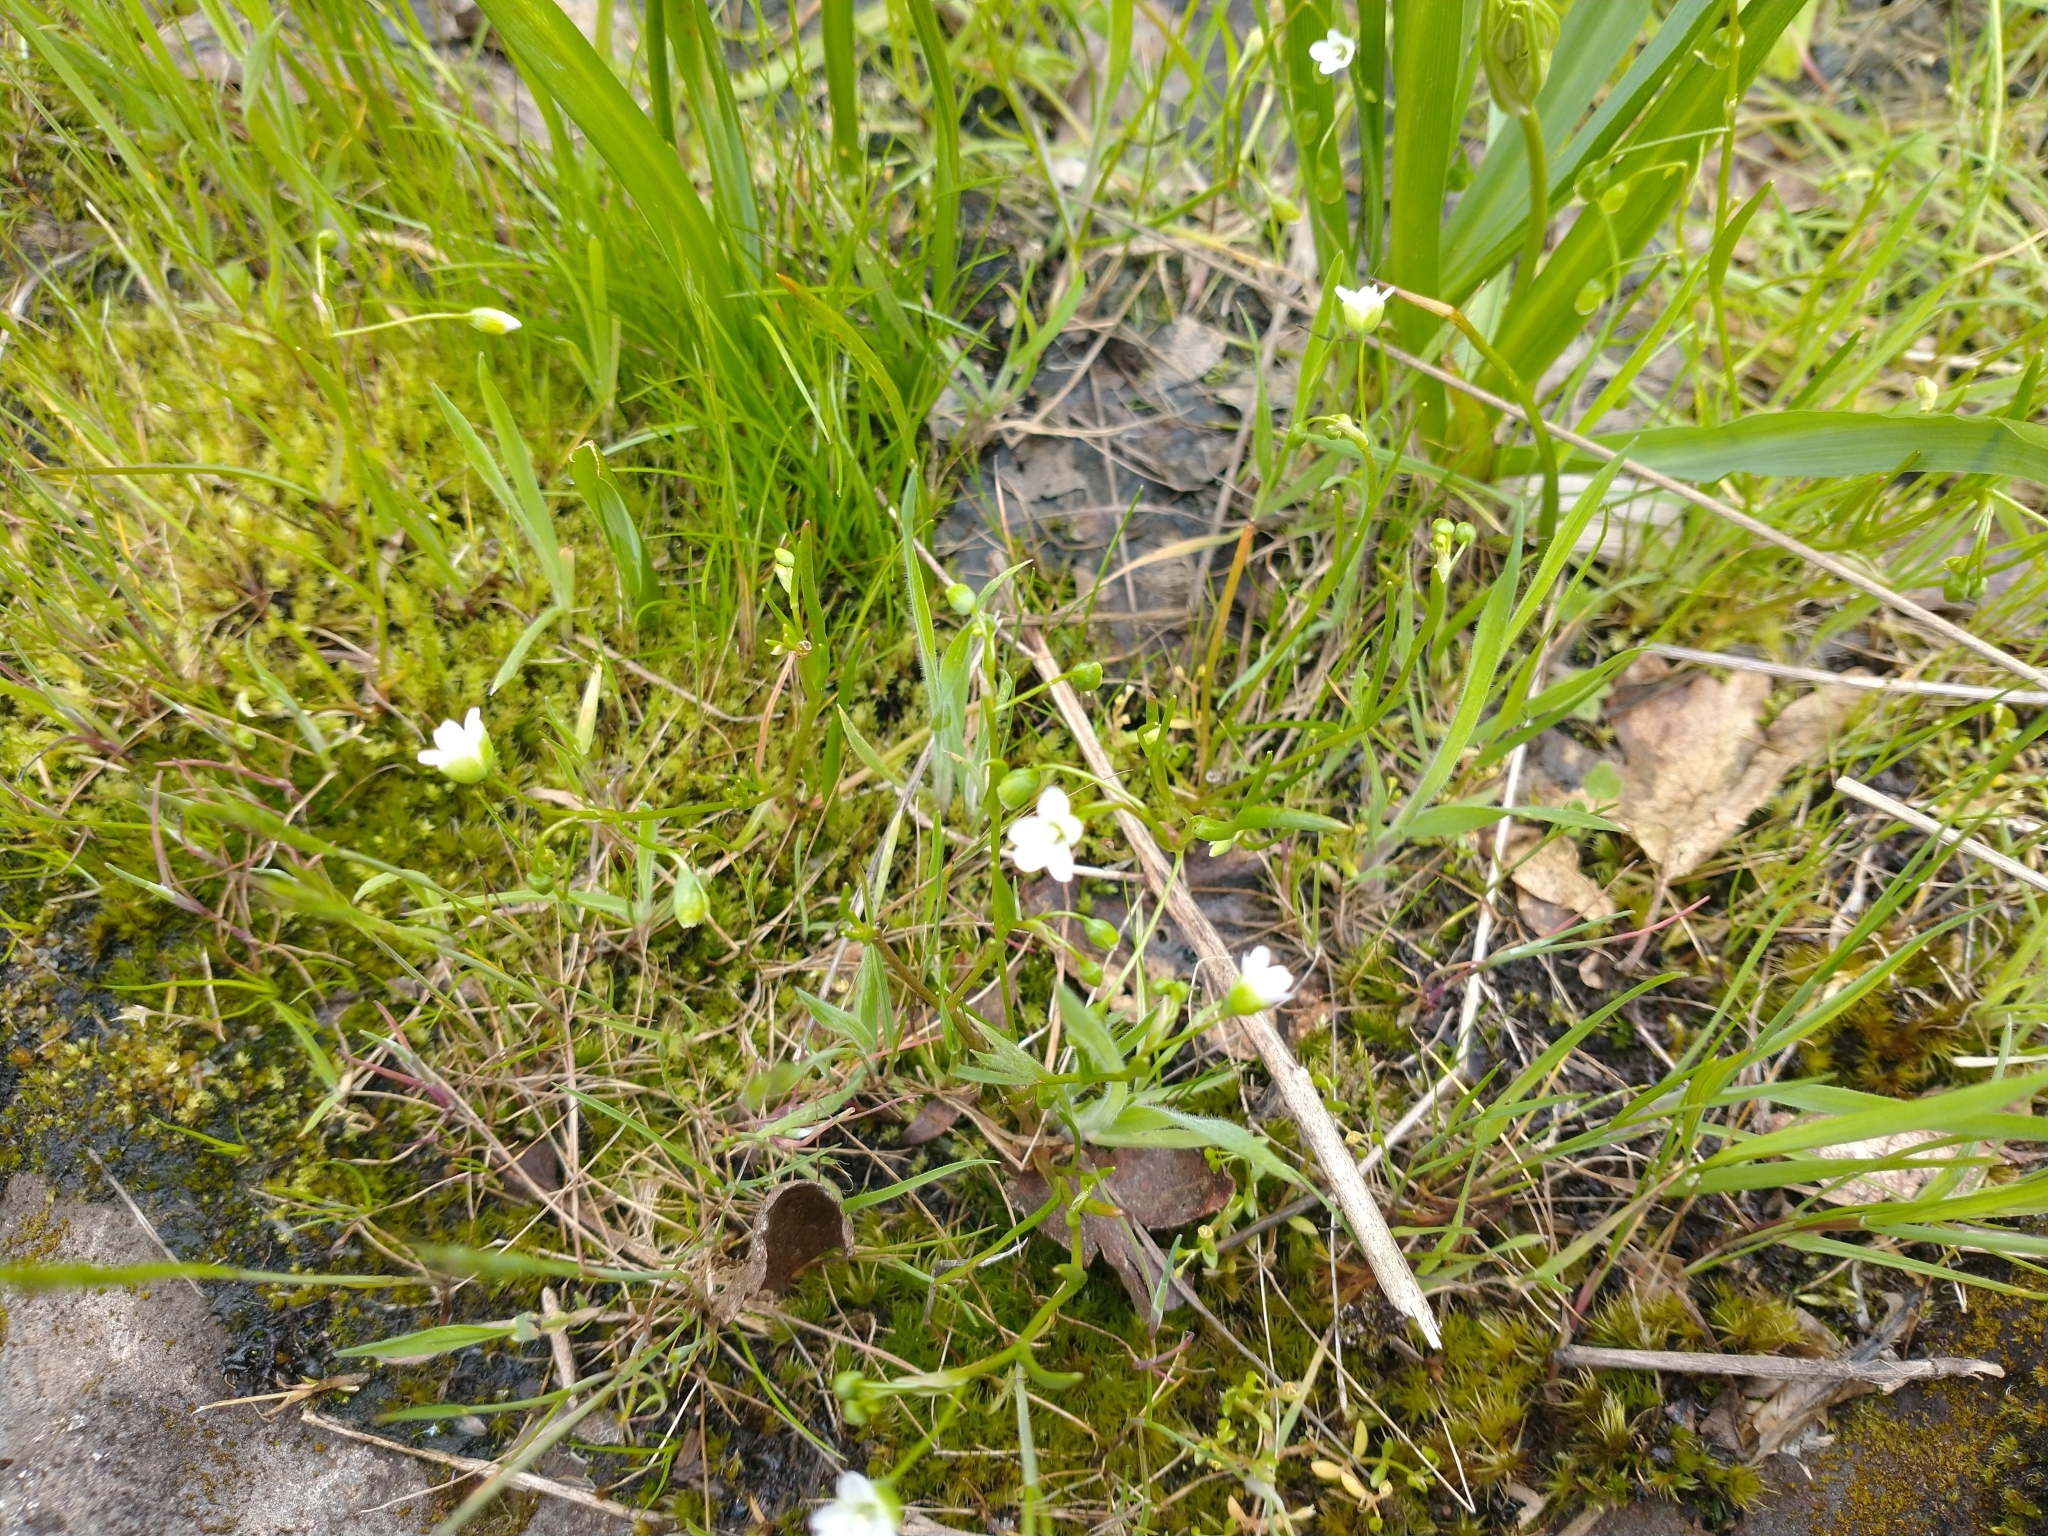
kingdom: Plantae
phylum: Tracheophyta
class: Magnoliopsida
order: Caryophyllales
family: Montiaceae
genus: Montia
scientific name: Montia linearis
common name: Narrow-leaf montia
